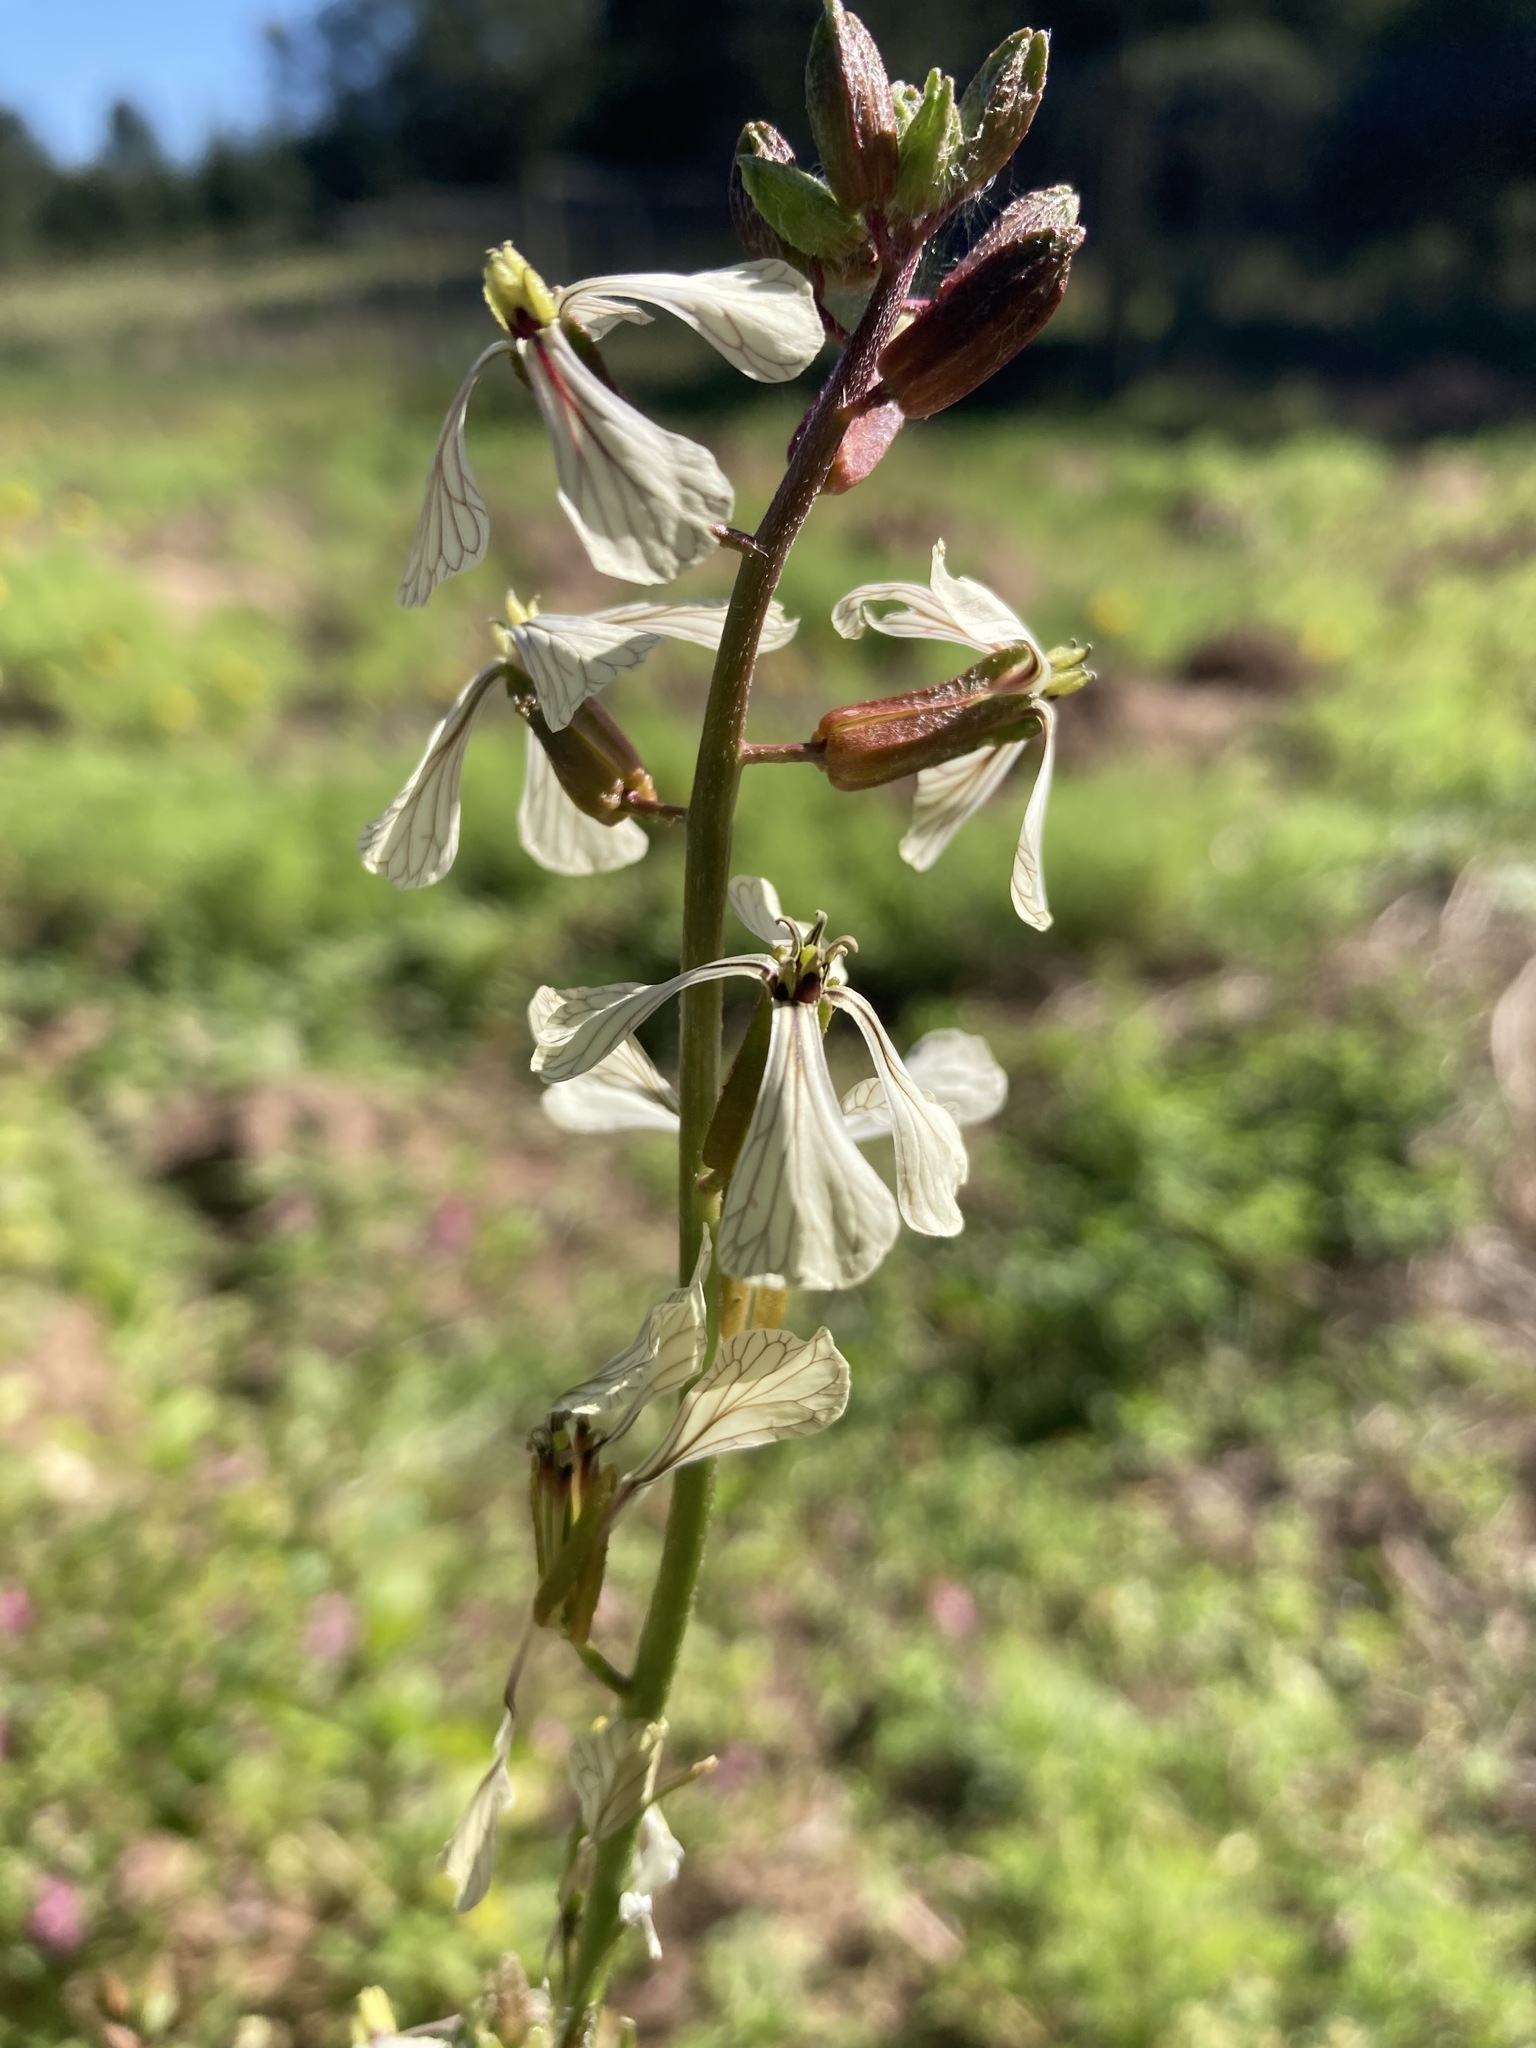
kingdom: Plantae
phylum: Tracheophyta
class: Magnoliopsida
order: Brassicales
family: Brassicaceae
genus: Eruca
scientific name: Eruca vesicaria
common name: Garden rocket
